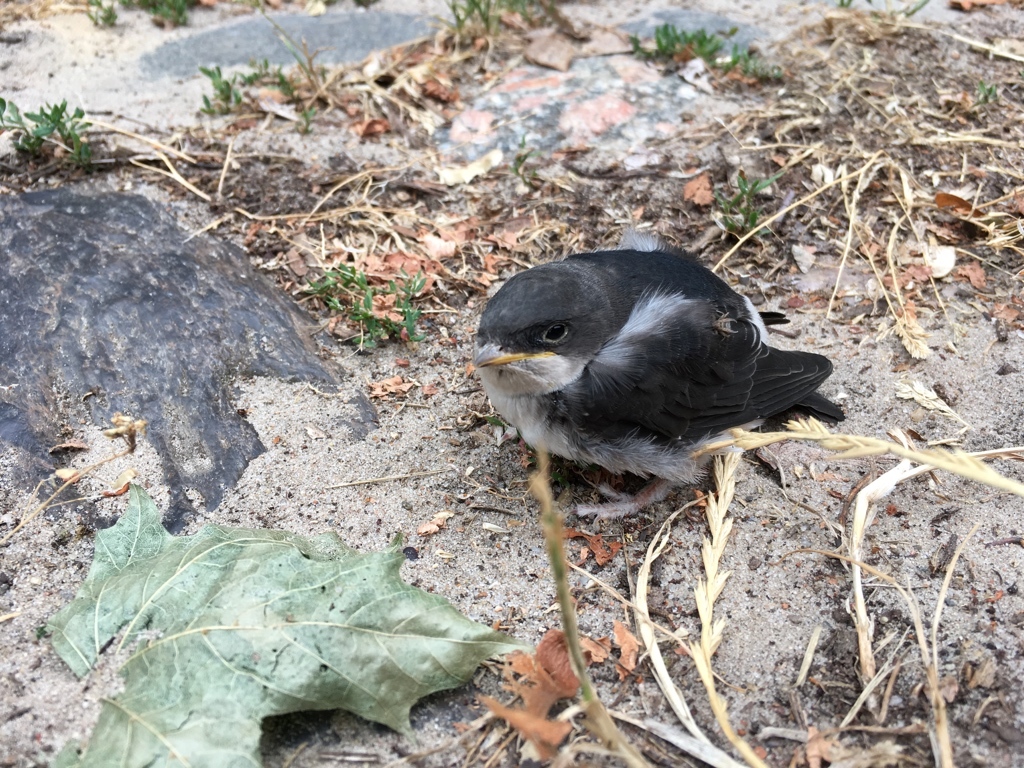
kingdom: Animalia
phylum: Chordata
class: Aves
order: Passeriformes
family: Hirundinidae
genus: Delichon
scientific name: Delichon urbicum
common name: Common house martin
